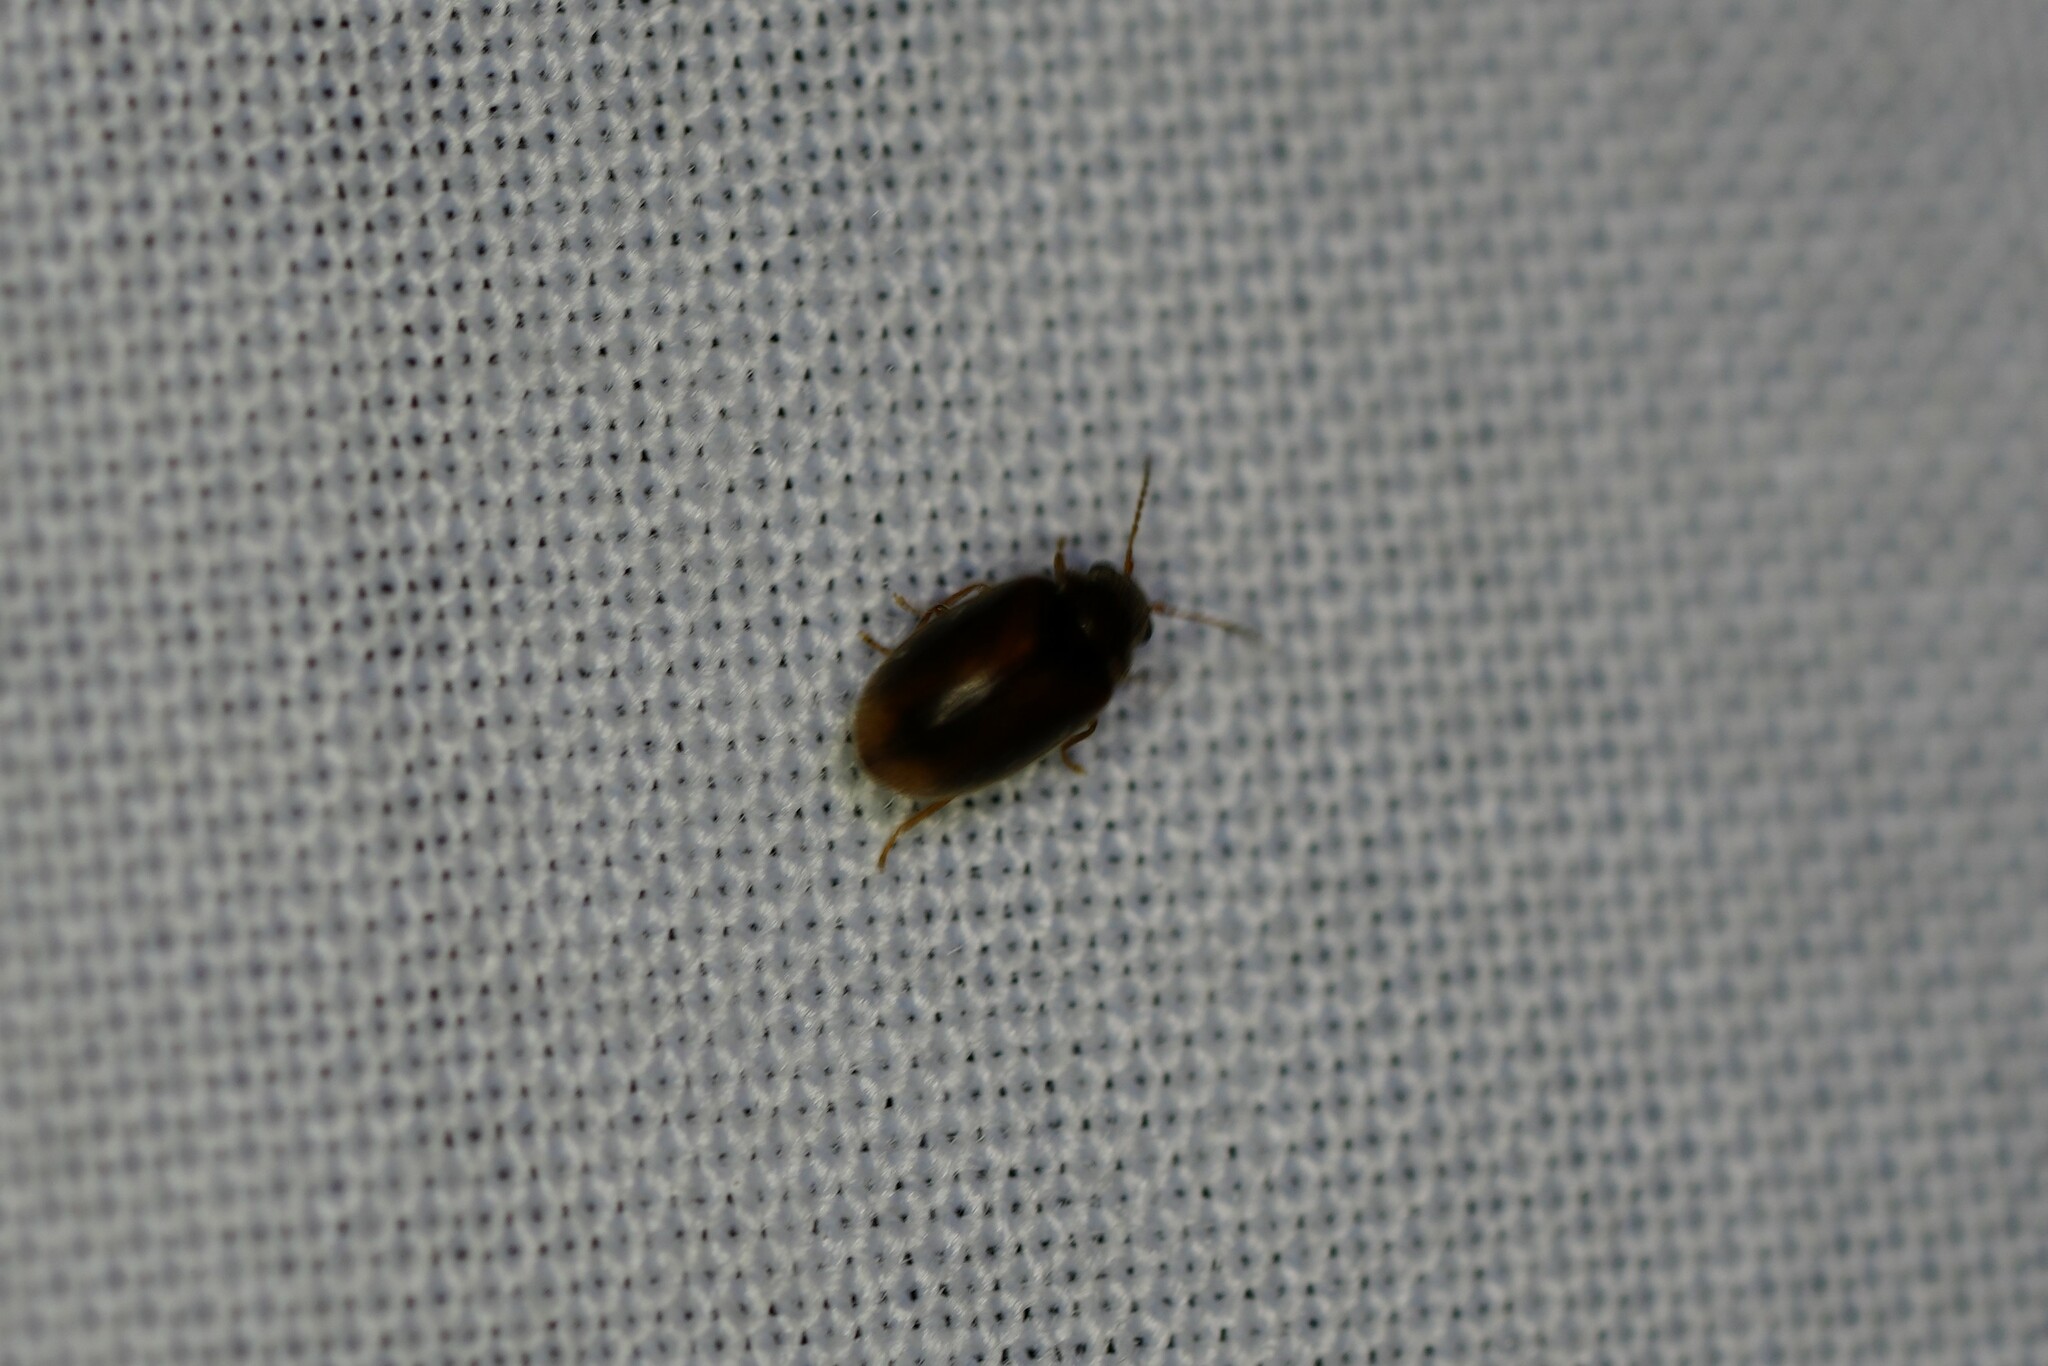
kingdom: Animalia
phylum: Arthropoda
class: Insecta
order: Coleoptera
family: Scirtidae
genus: Contacyphon
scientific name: Contacyphon
